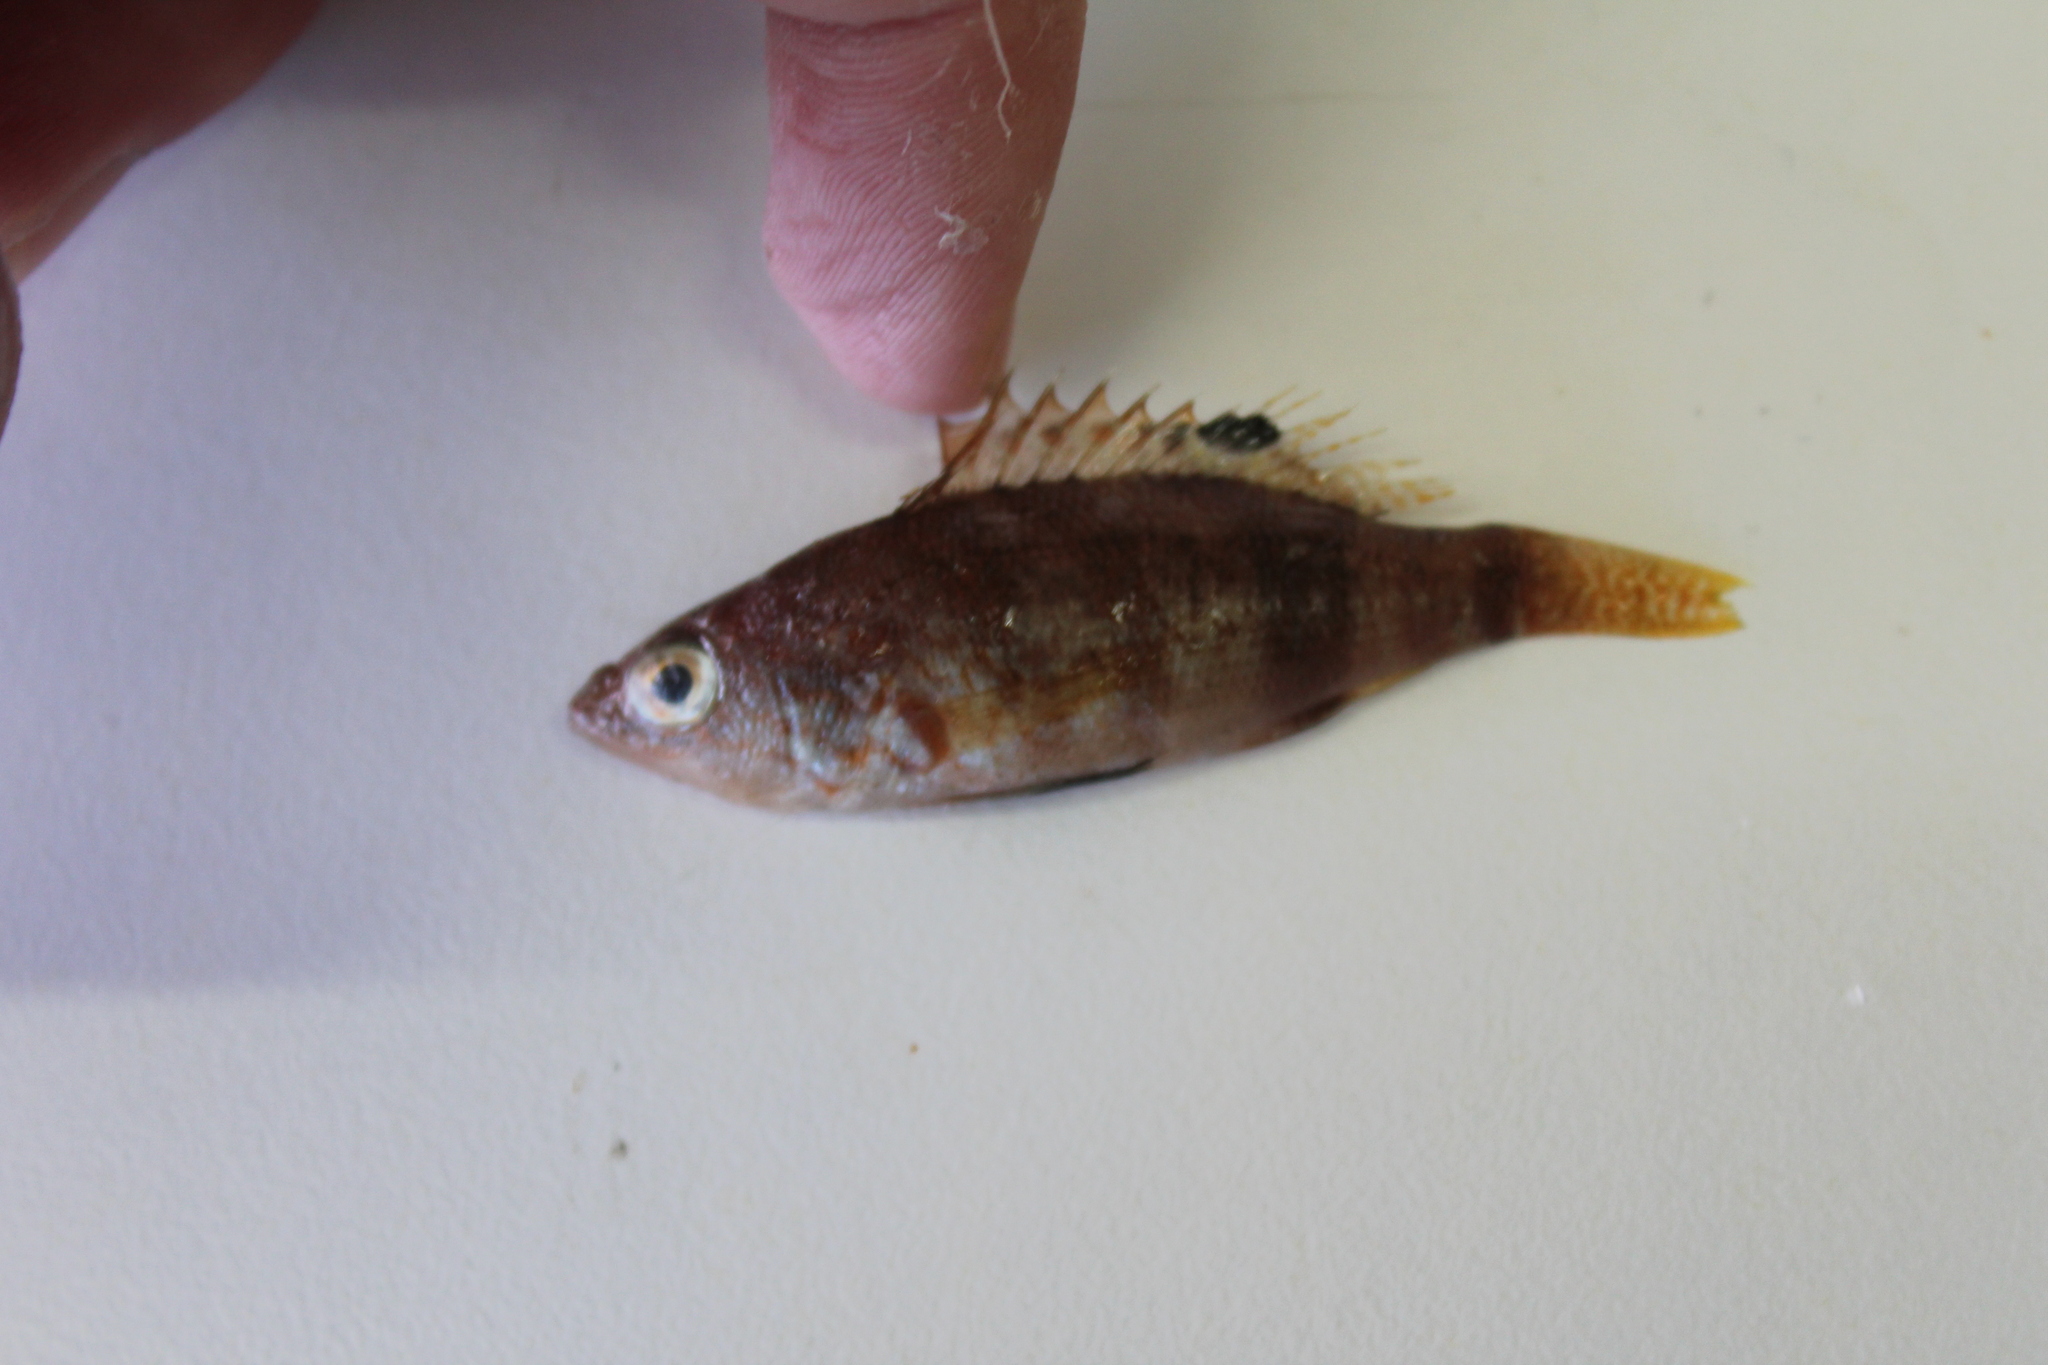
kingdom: Animalia
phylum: Chordata
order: Perciformes
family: Serranidae
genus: Serranus
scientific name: Serranus hepatus
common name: Brown comber
